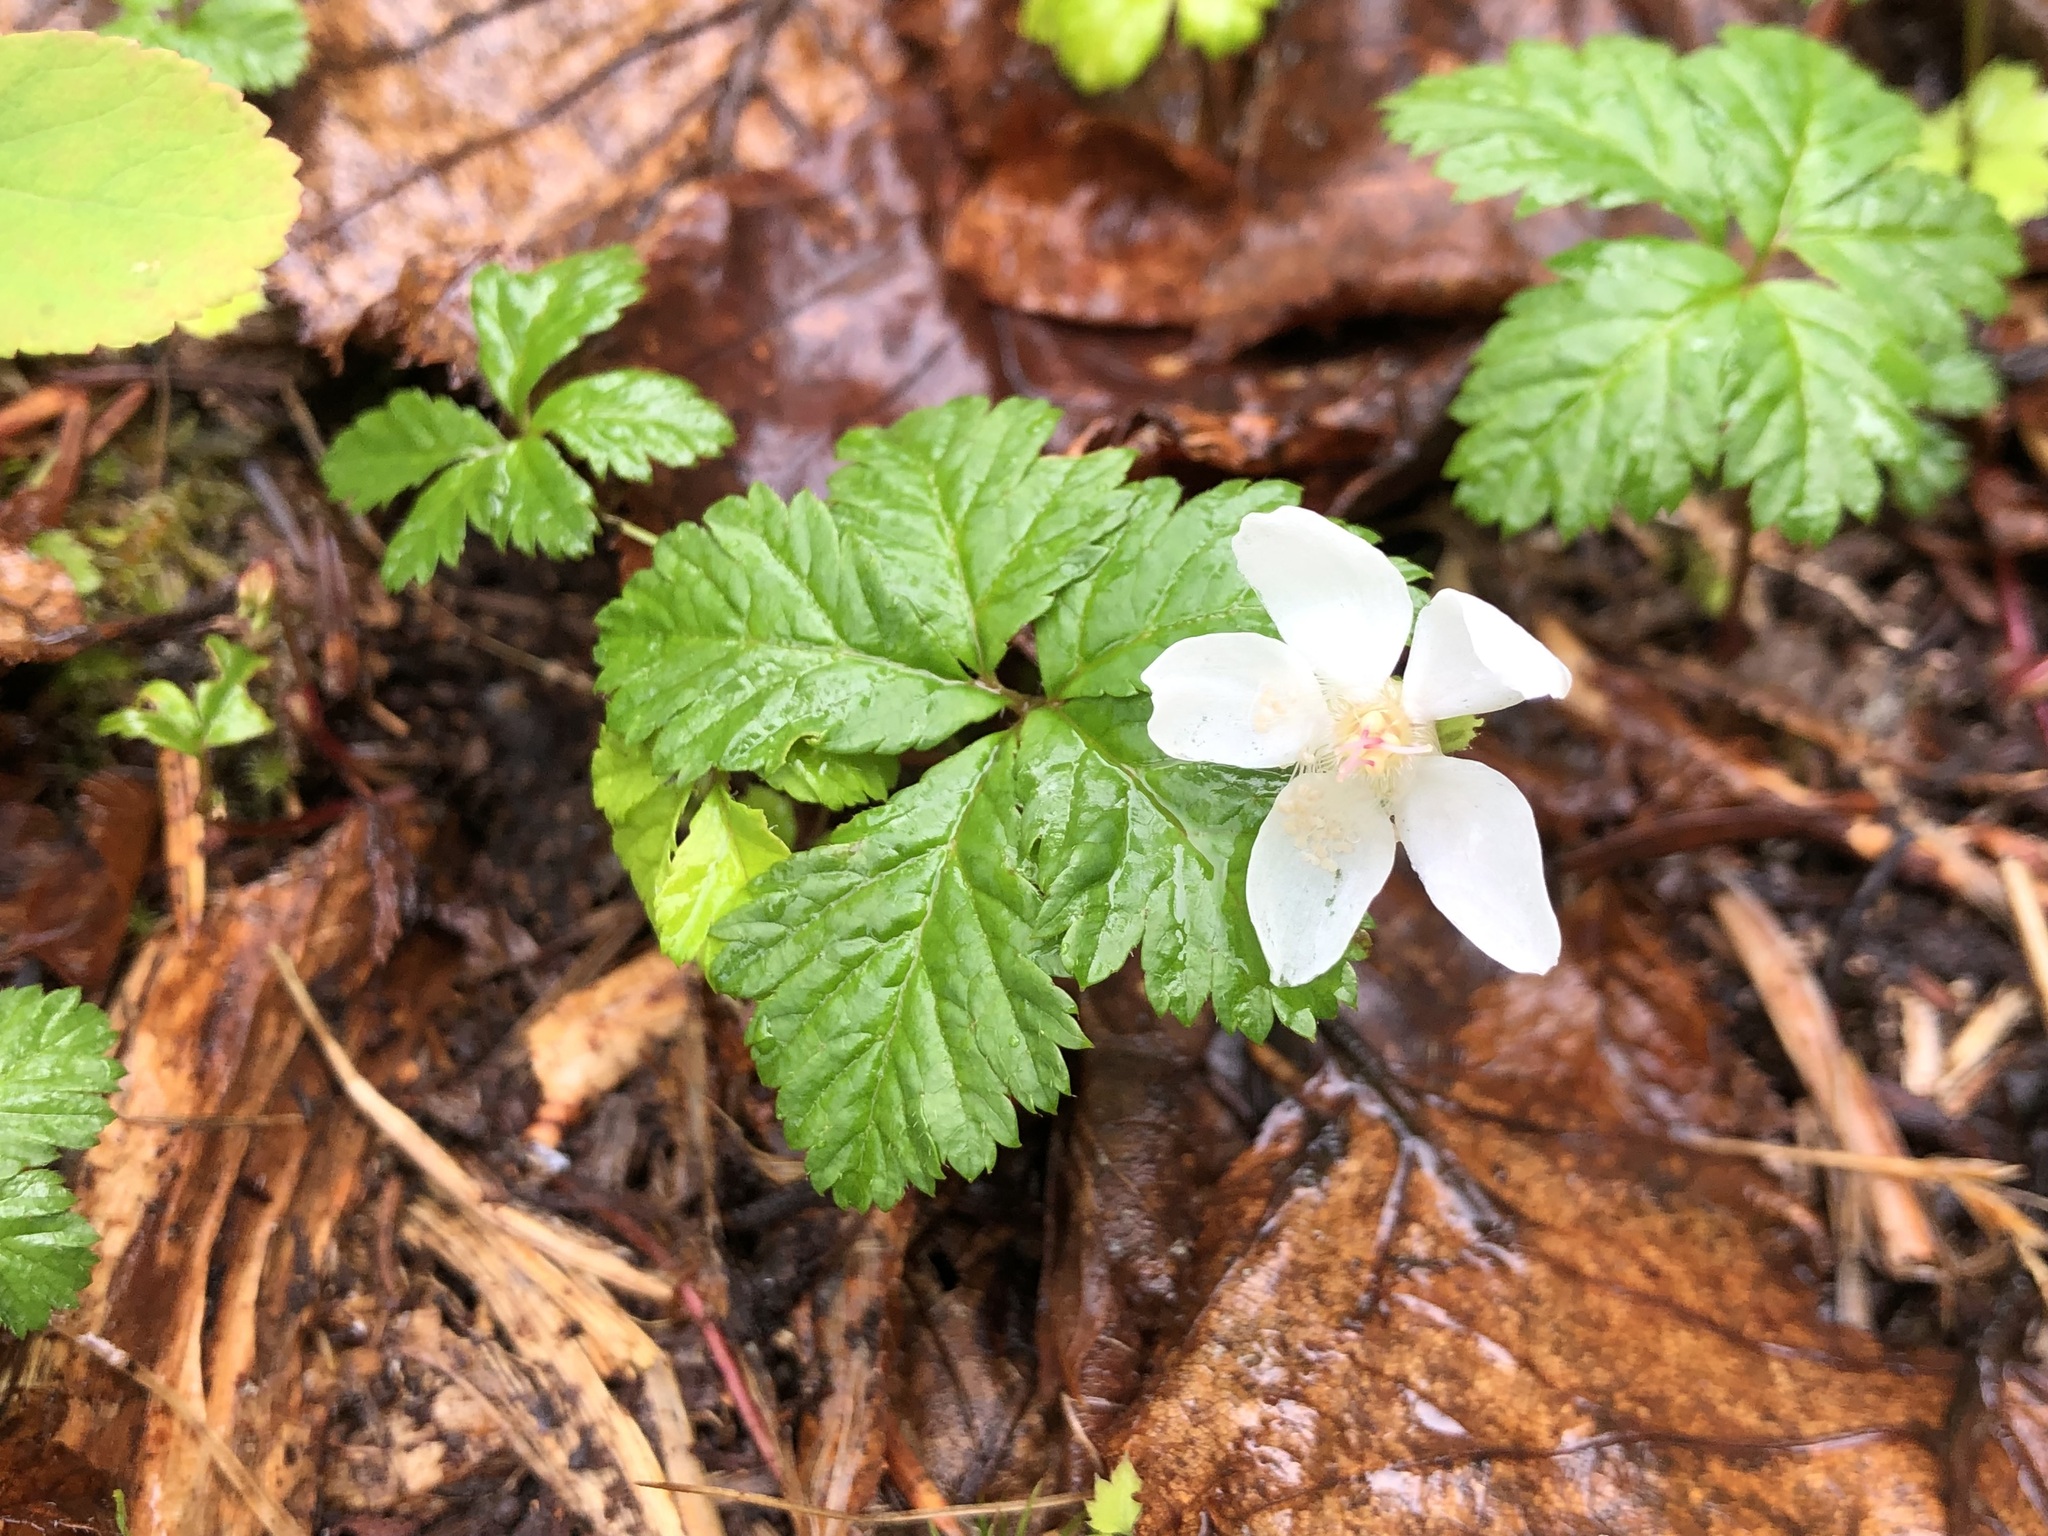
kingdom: Plantae
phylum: Tracheophyta
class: Magnoliopsida
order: Rosales
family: Rosaceae
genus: Rubus
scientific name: Rubus pedatus
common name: Creeping raspberry
